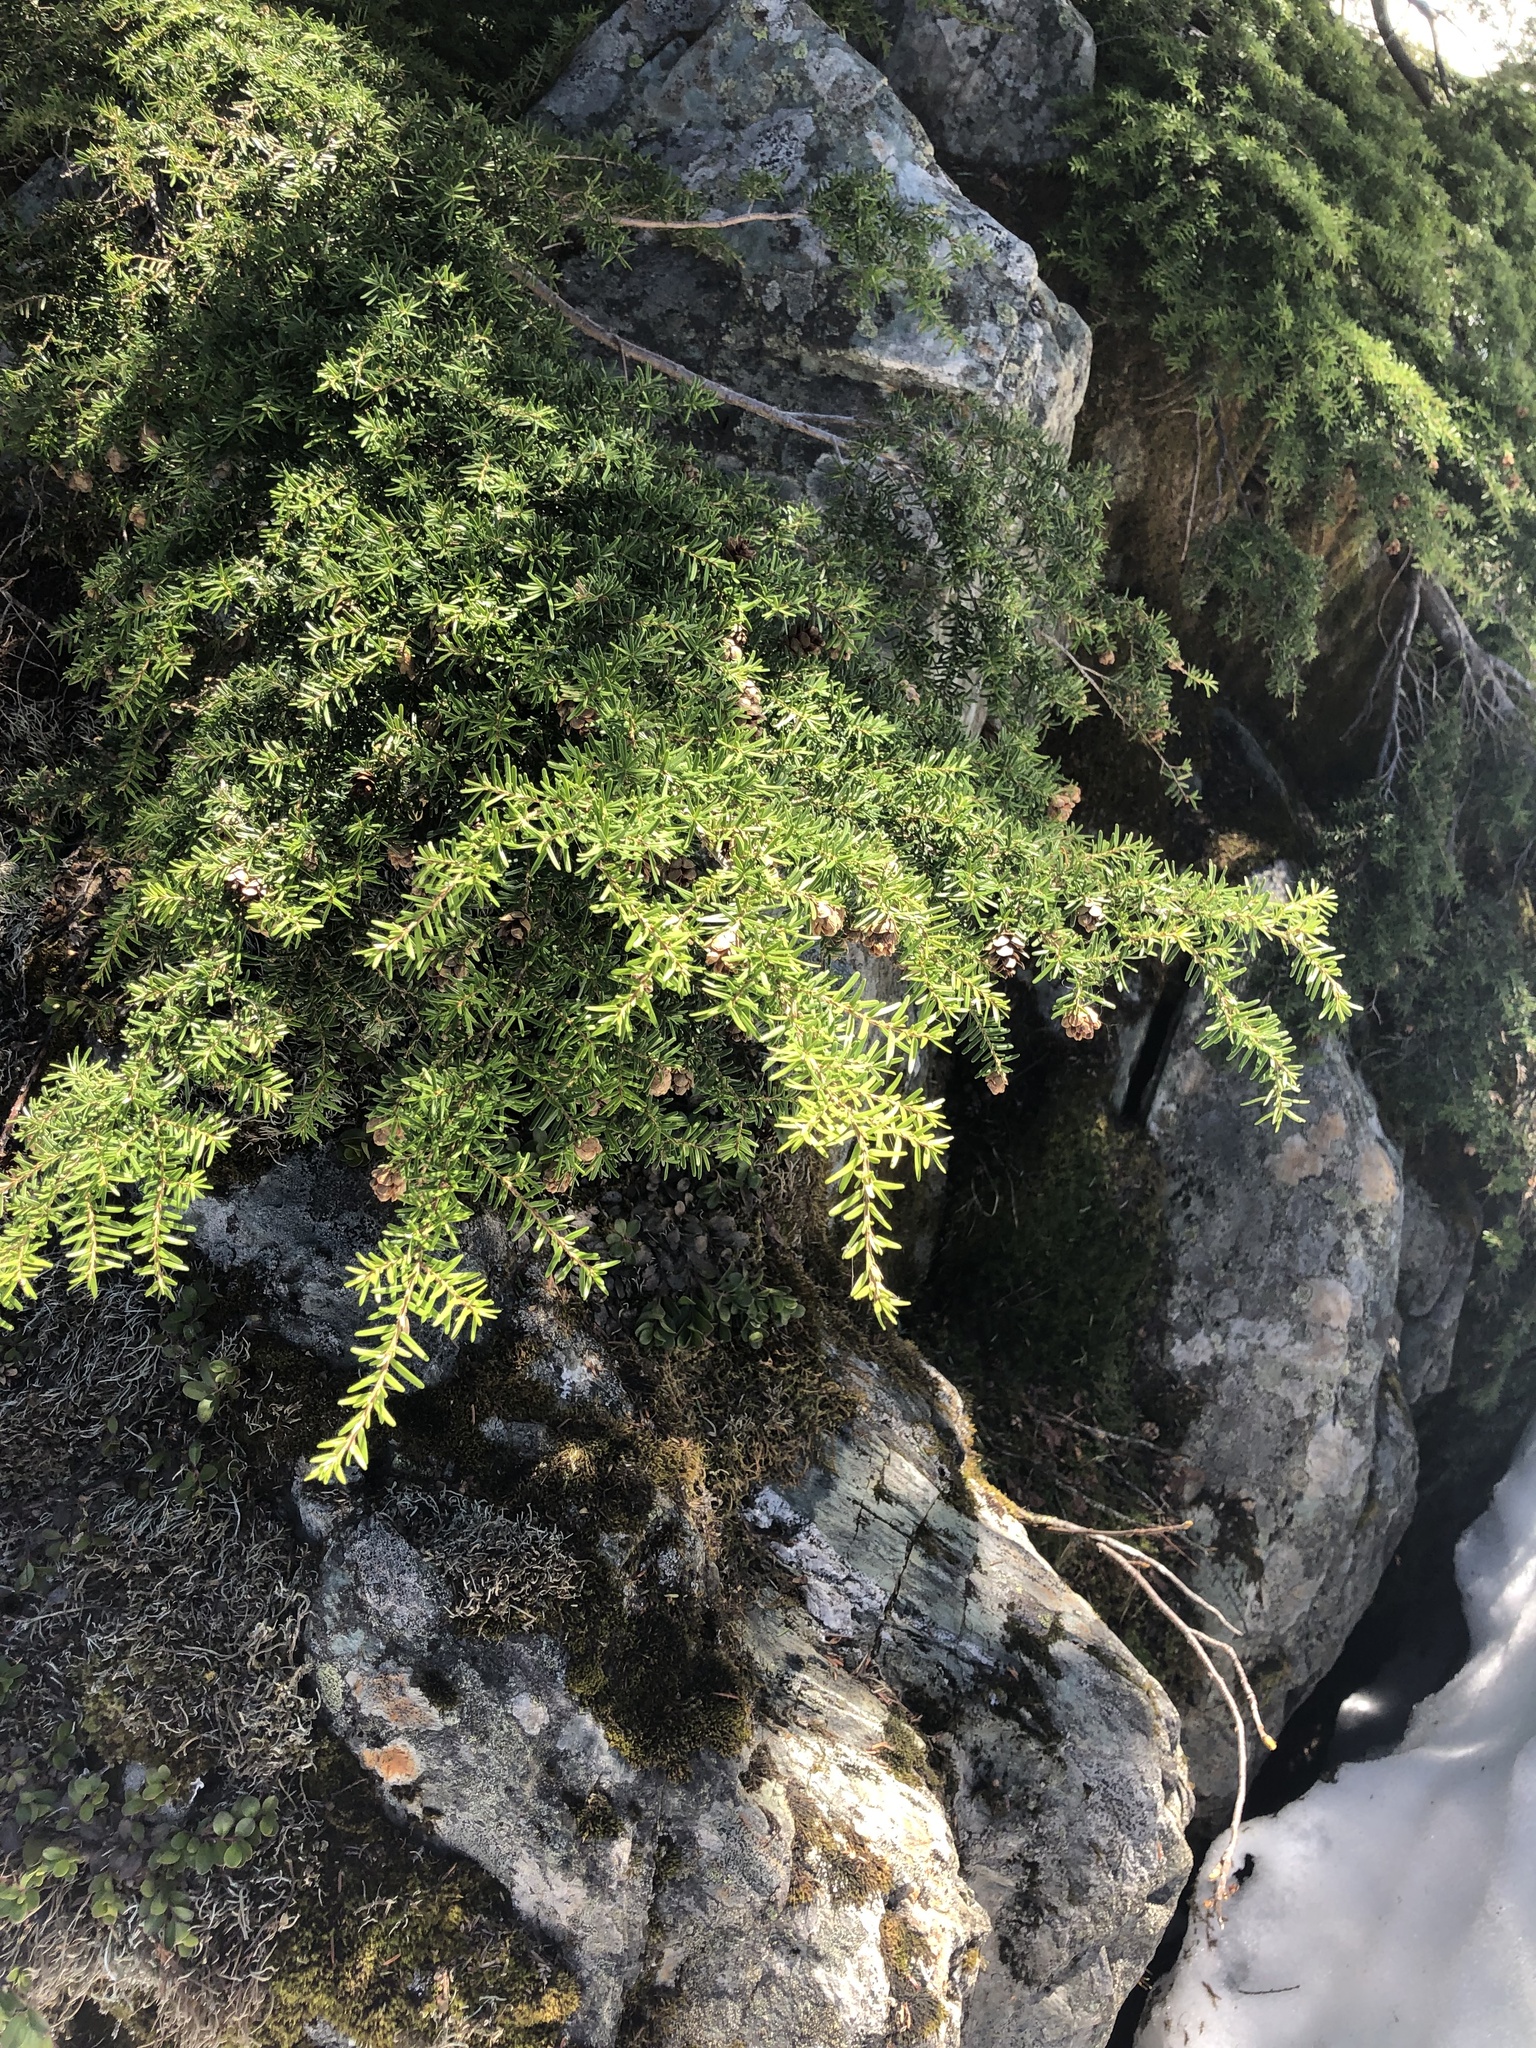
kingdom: Plantae
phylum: Tracheophyta
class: Pinopsida
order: Pinales
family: Pinaceae
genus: Tsuga
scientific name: Tsuga heterophylla
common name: Western hemlock
